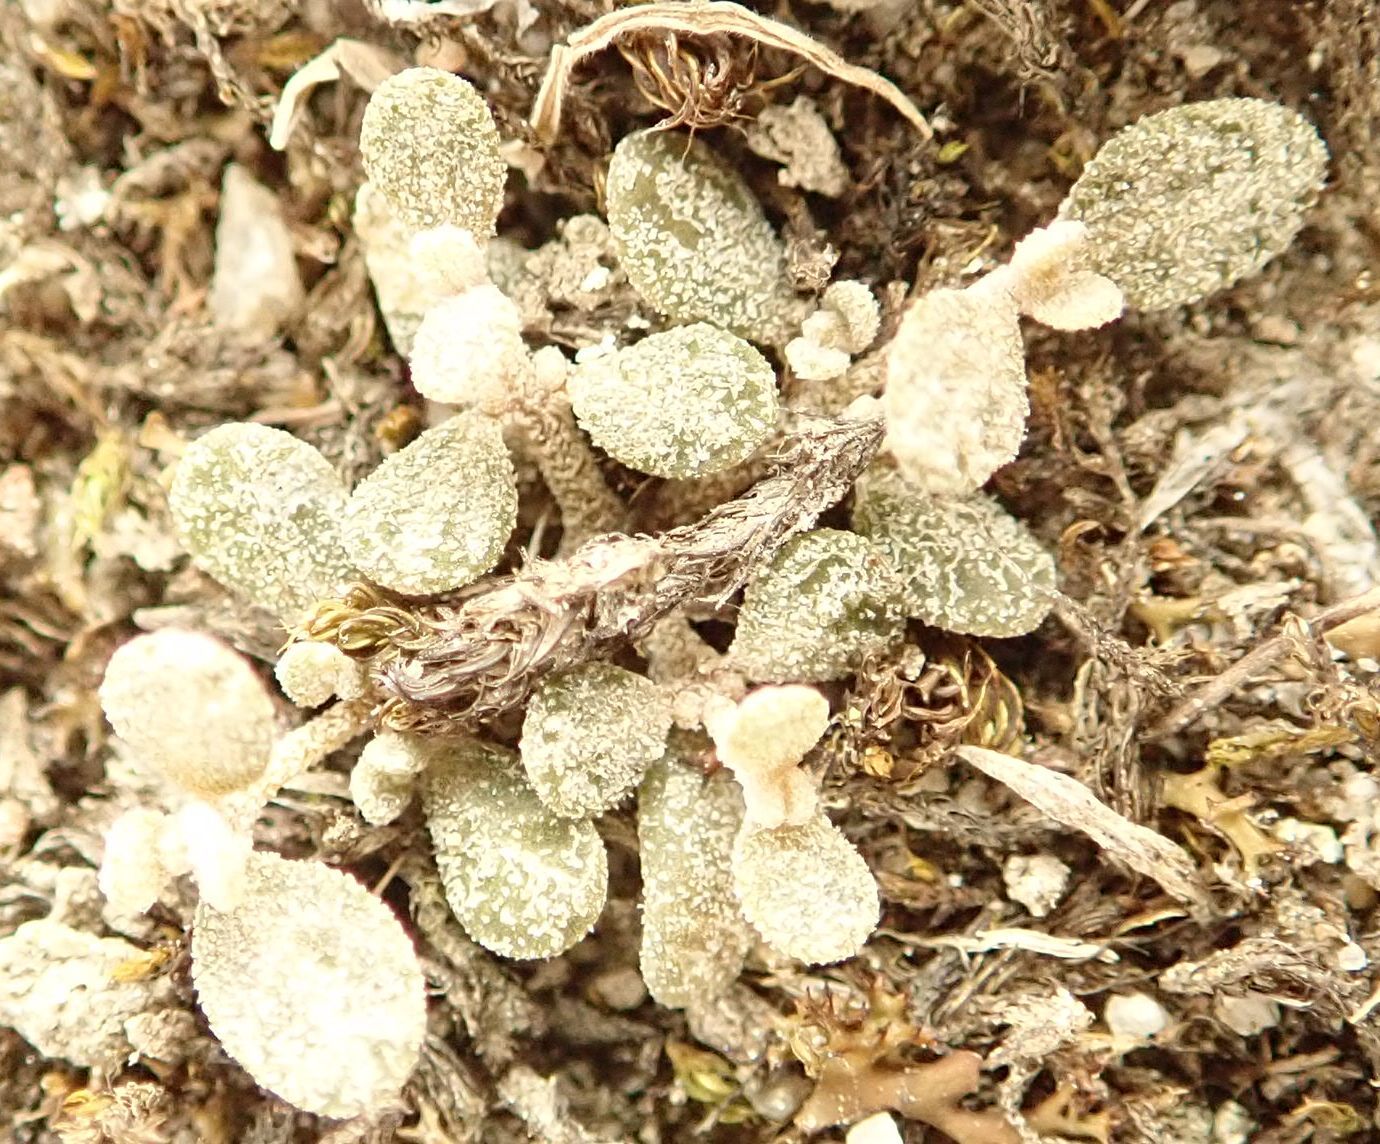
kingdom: Plantae
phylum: Tracheophyta
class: Magnoliopsida
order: Caryophyllales
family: Amaranthaceae
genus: Atriplex
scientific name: Atriplex buchananii
